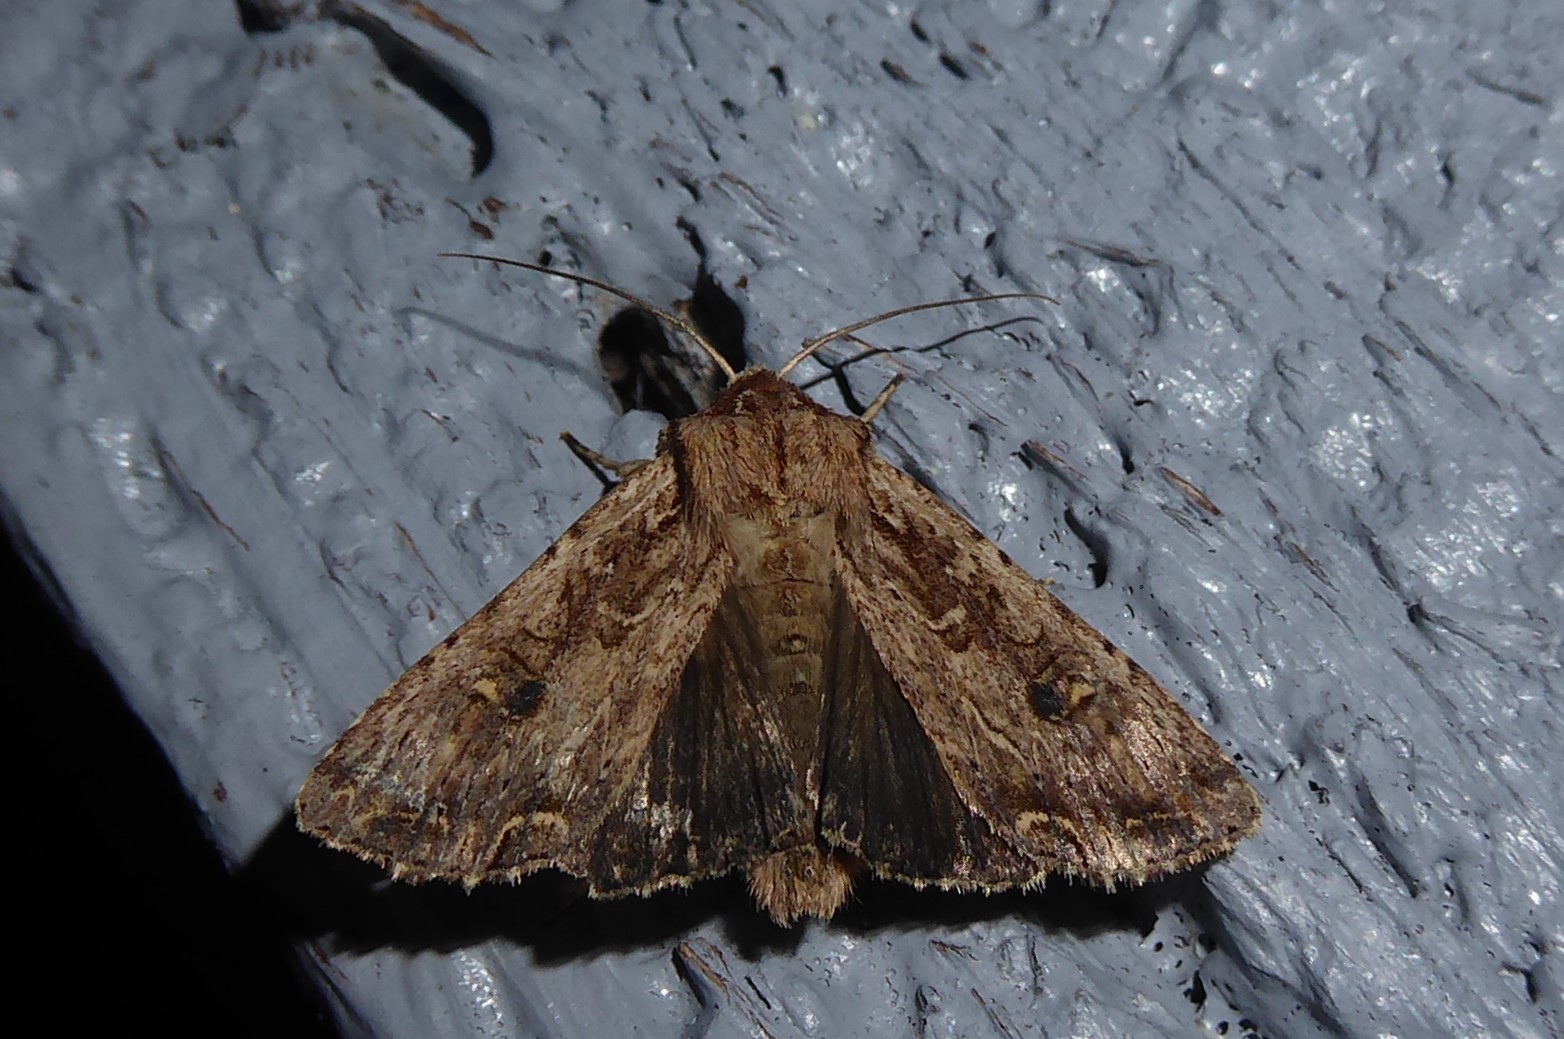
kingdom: Animalia
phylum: Arthropoda
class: Insecta
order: Lepidoptera
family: Noctuidae
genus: Ichneutica
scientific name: Ichneutica lignana
